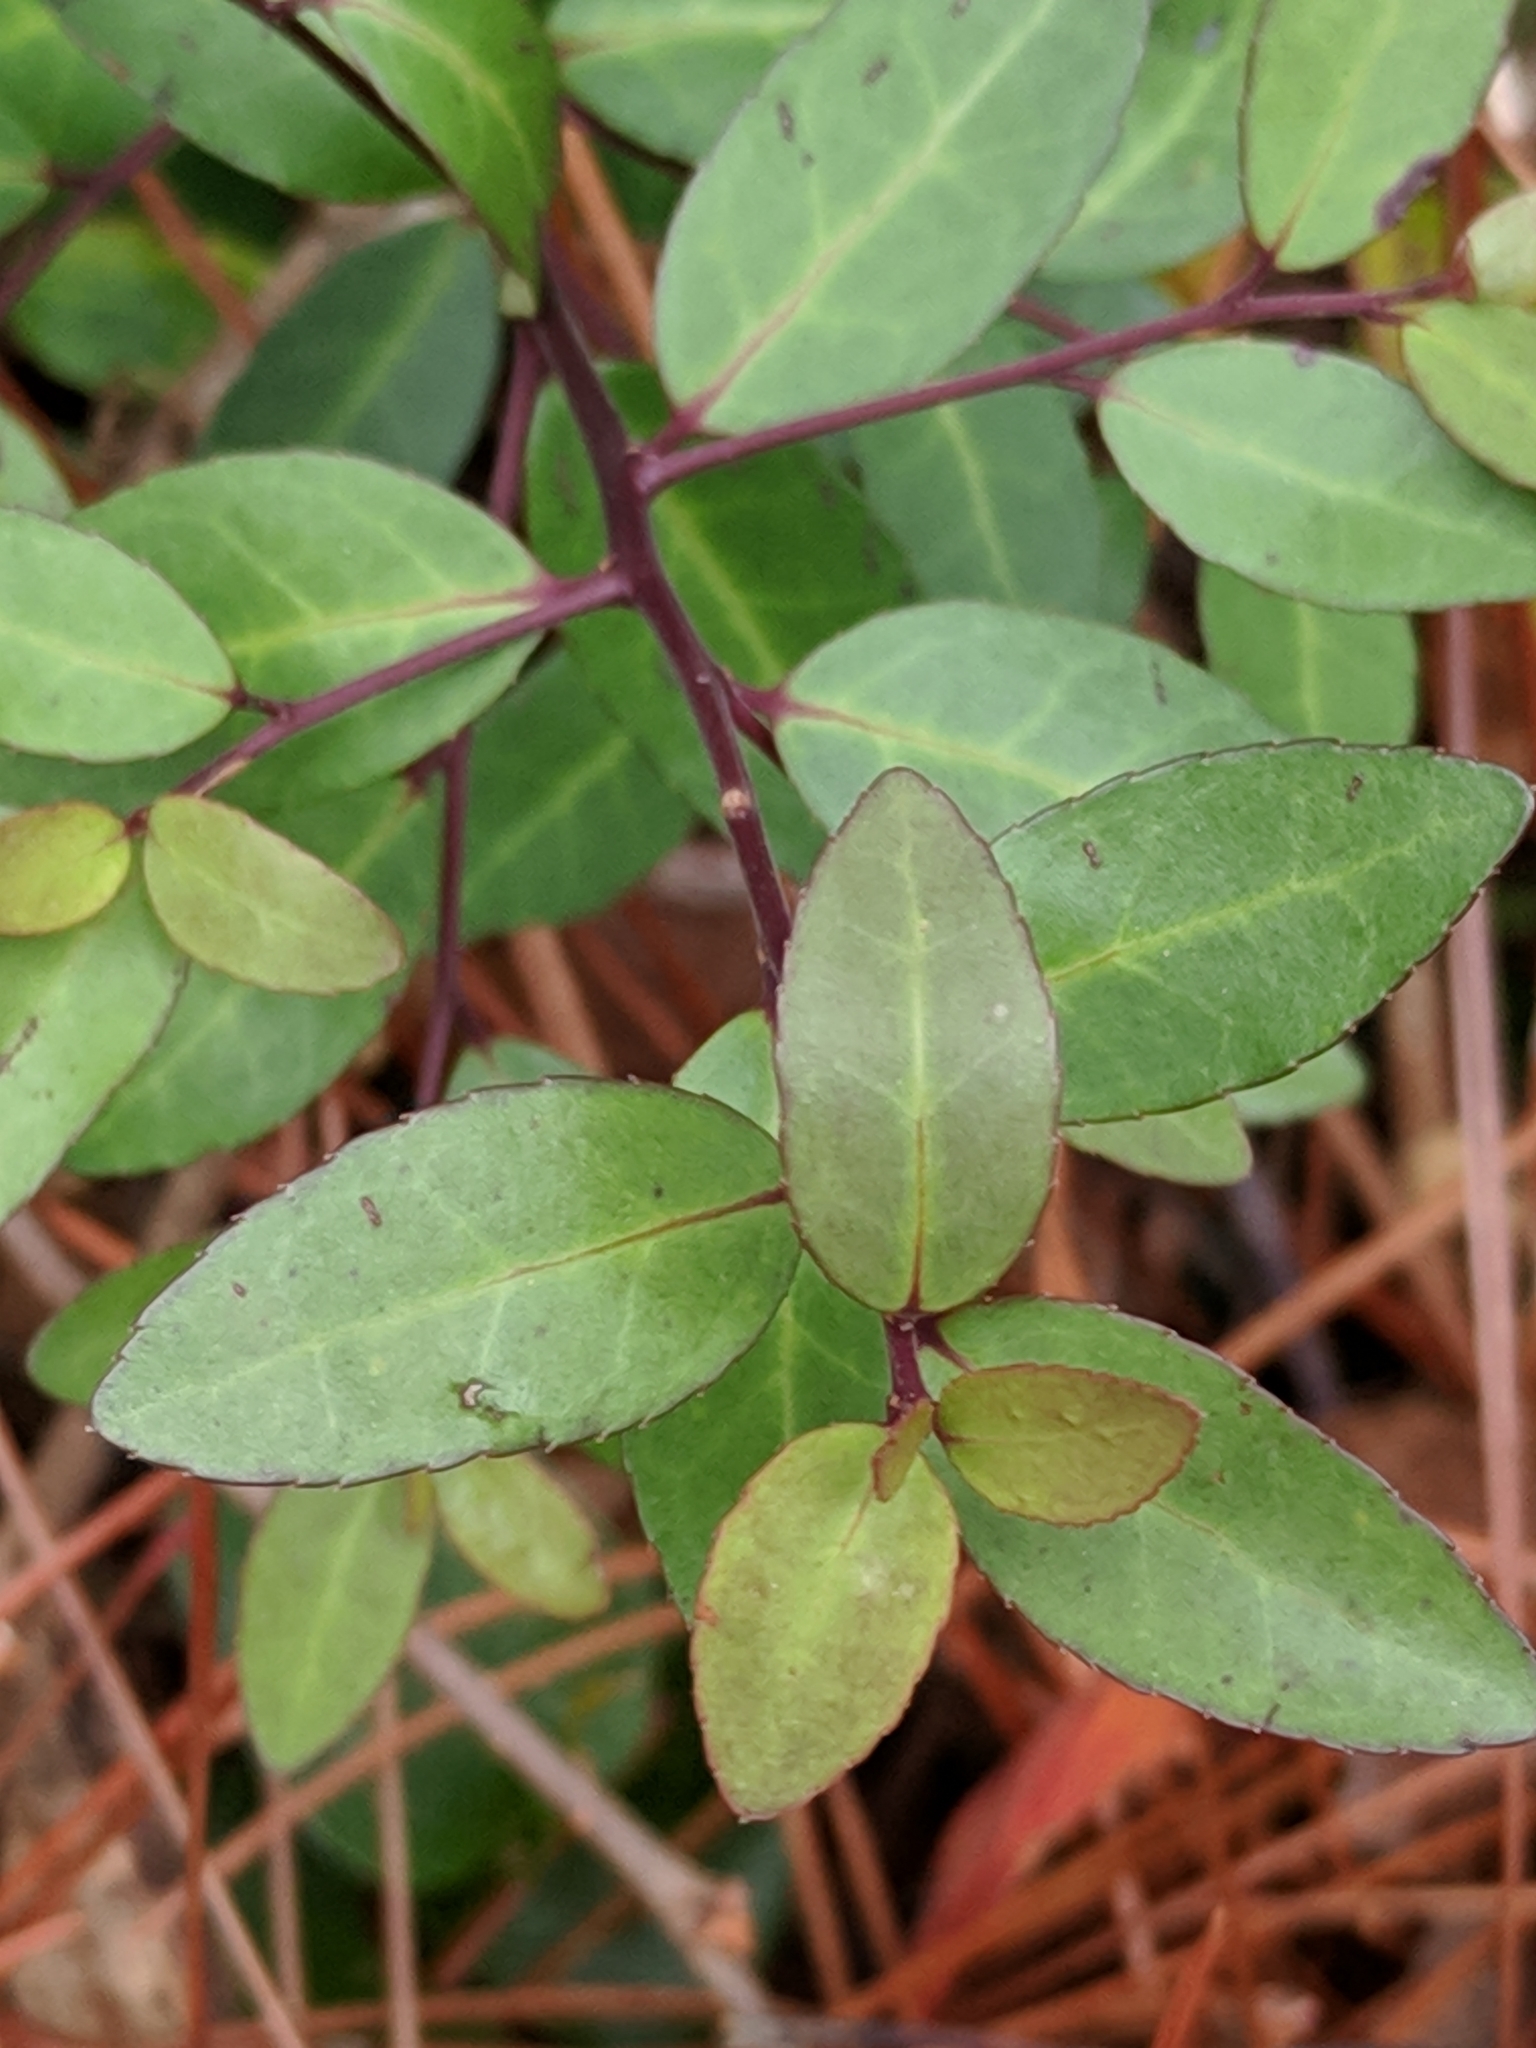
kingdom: Plantae
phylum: Tracheophyta
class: Magnoliopsida
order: Aquifoliales
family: Aquifoliaceae
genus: Ilex
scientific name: Ilex vomitoria
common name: Yaupon holly
